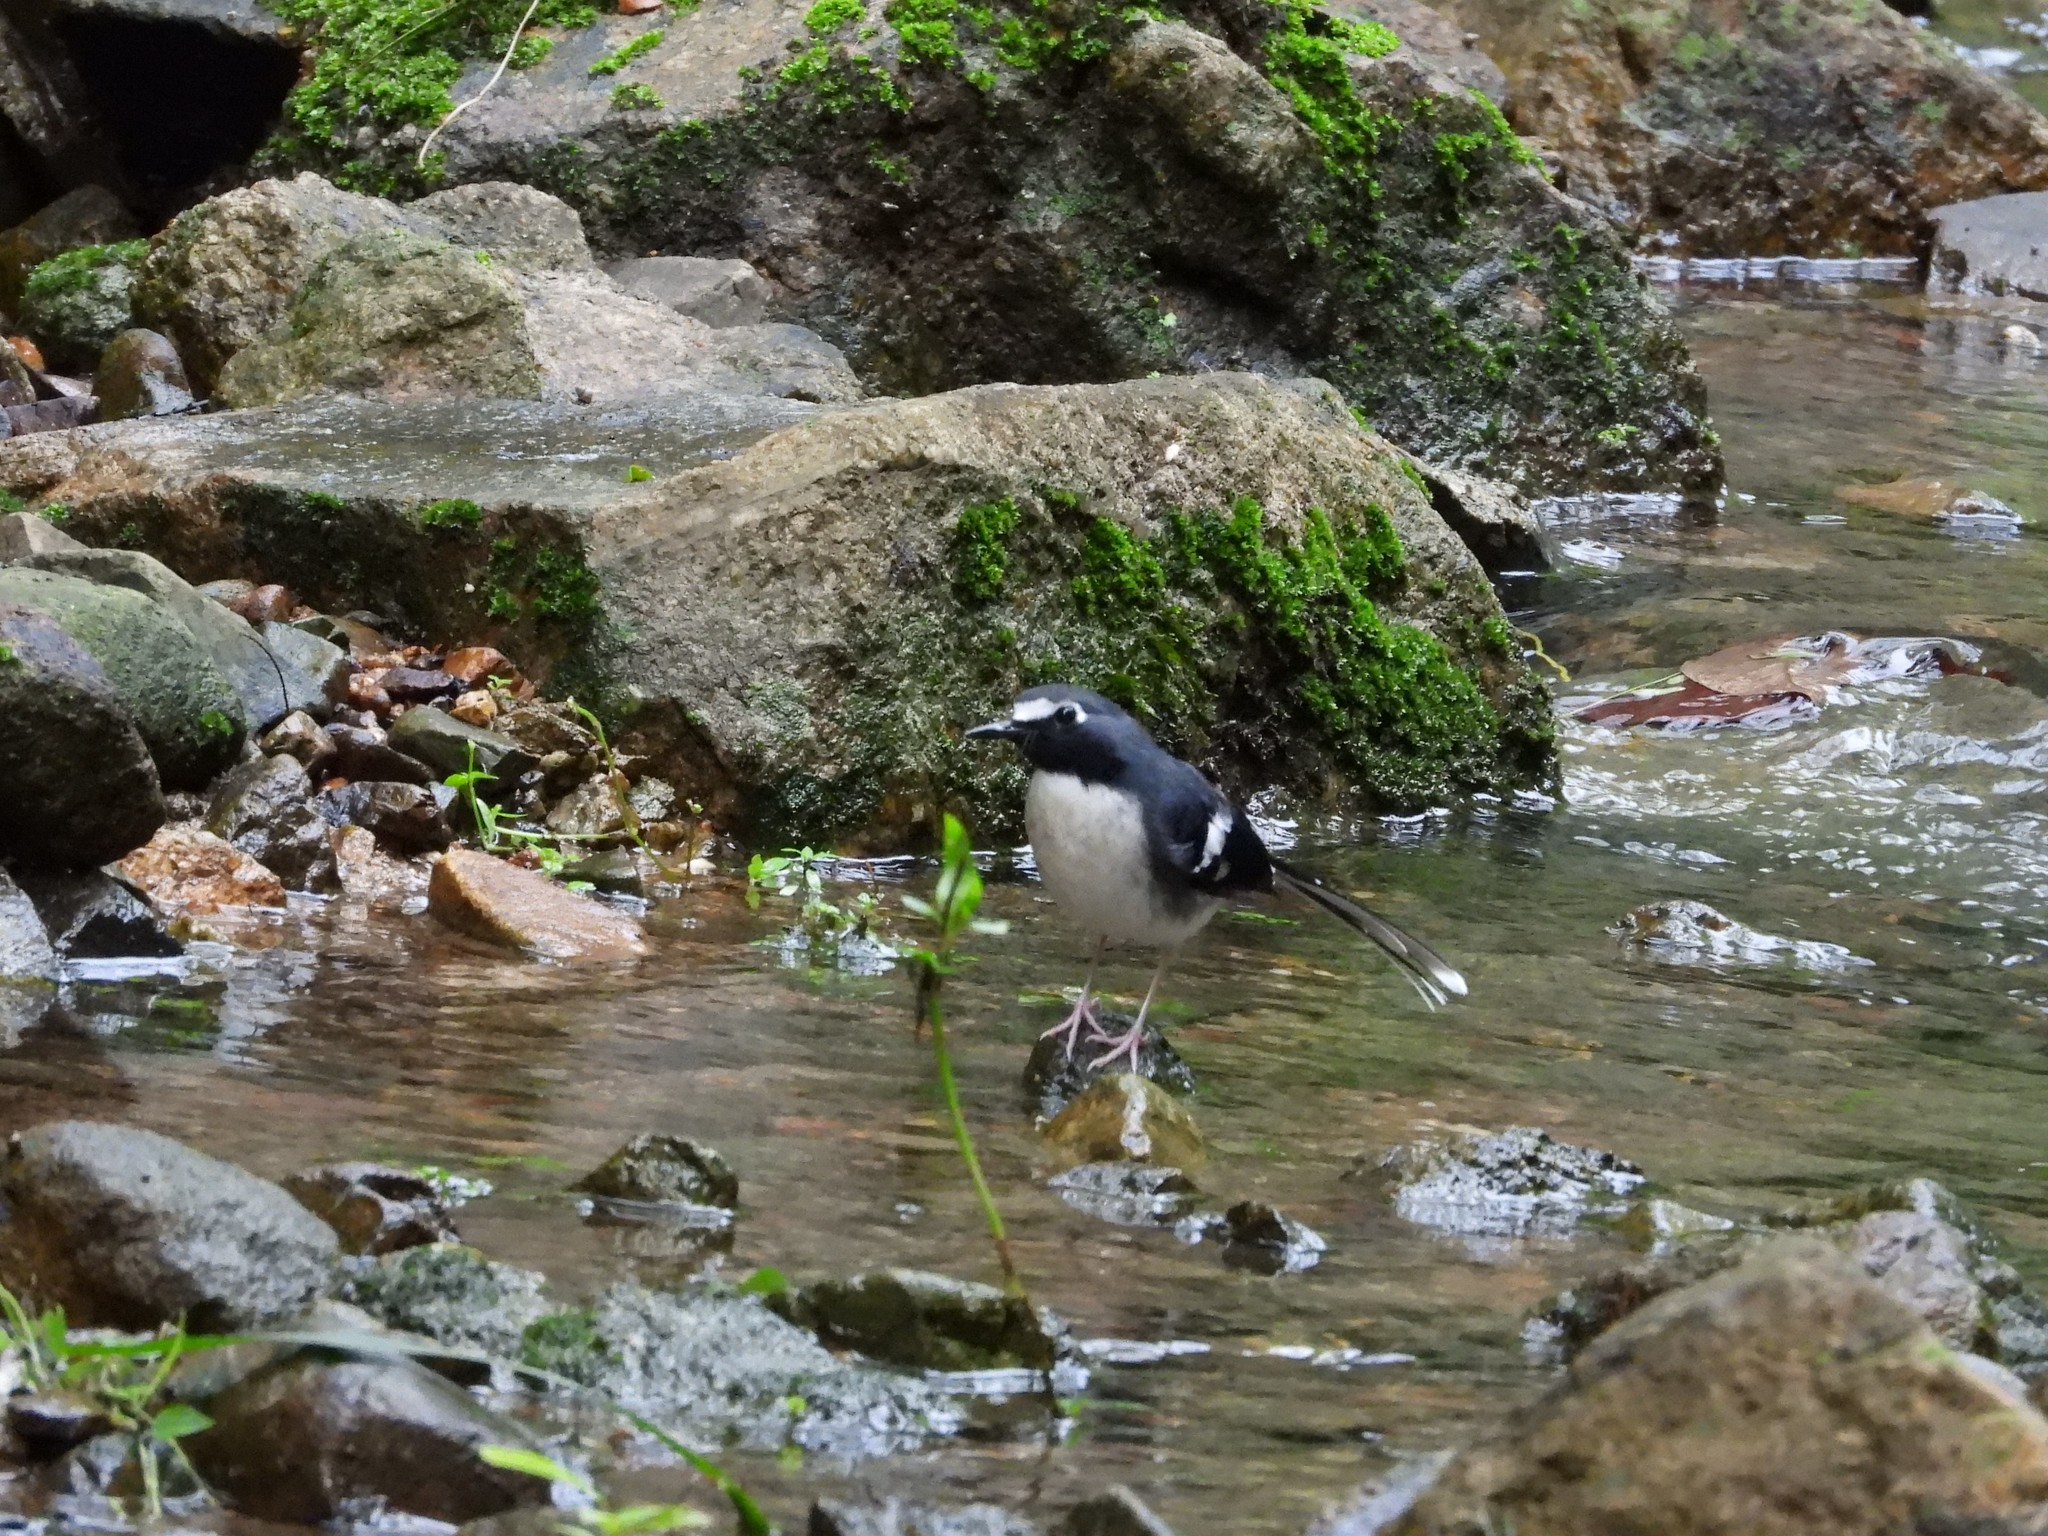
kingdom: Animalia
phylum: Chordata
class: Aves
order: Passeriformes
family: Muscicapidae
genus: Enicurus
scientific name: Enicurus schistaceus
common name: Slaty-backed forktail
